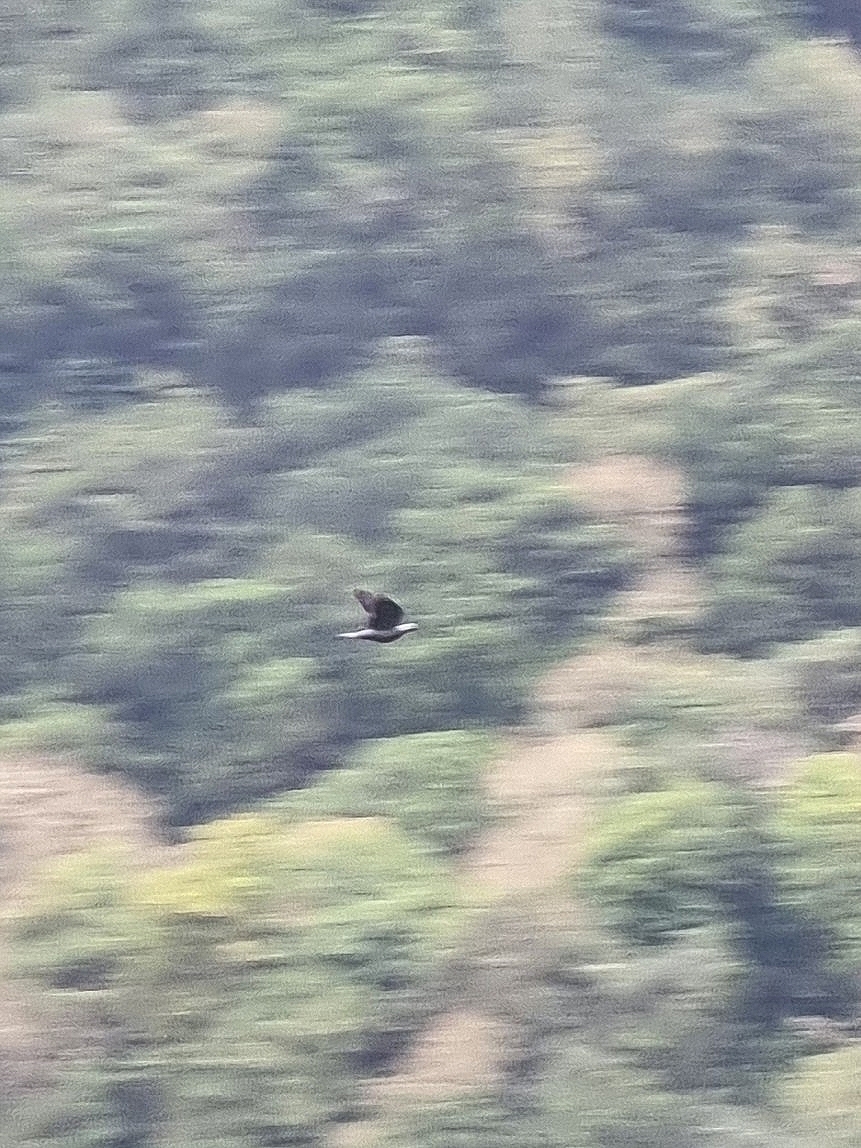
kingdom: Animalia
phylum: Chordata
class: Aves
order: Columbiformes
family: Columbidae
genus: Columba
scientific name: Columba trocaz
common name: Trocaz pigeon
